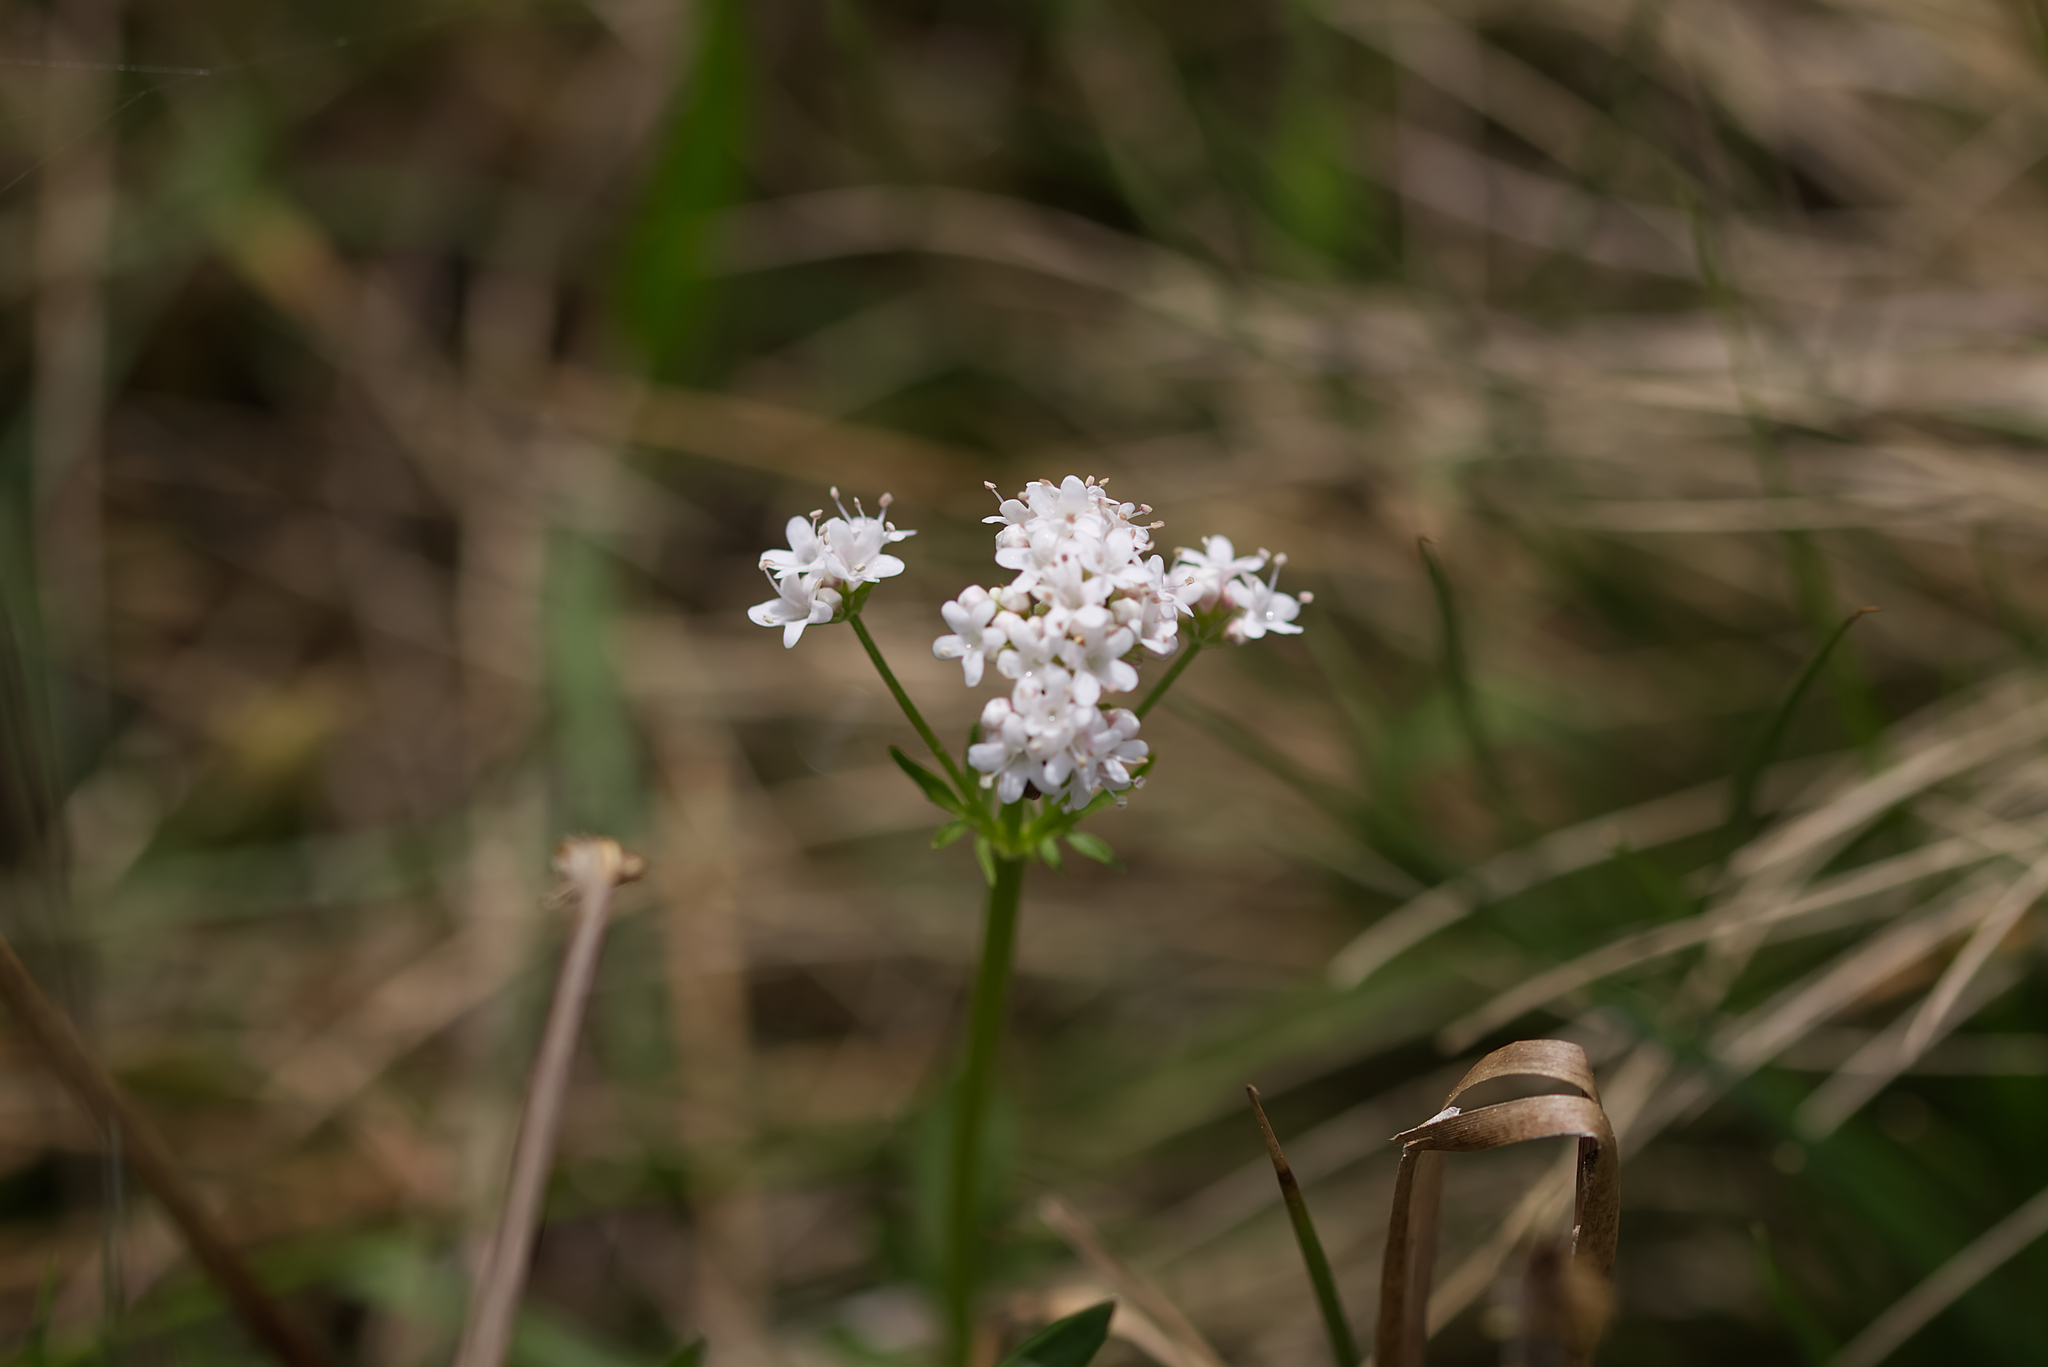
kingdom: Plantae
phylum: Tracheophyta
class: Magnoliopsida
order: Dipsacales
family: Caprifoliaceae
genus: Valeriana
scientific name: Valeriana dioica
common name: Marsh valerian
